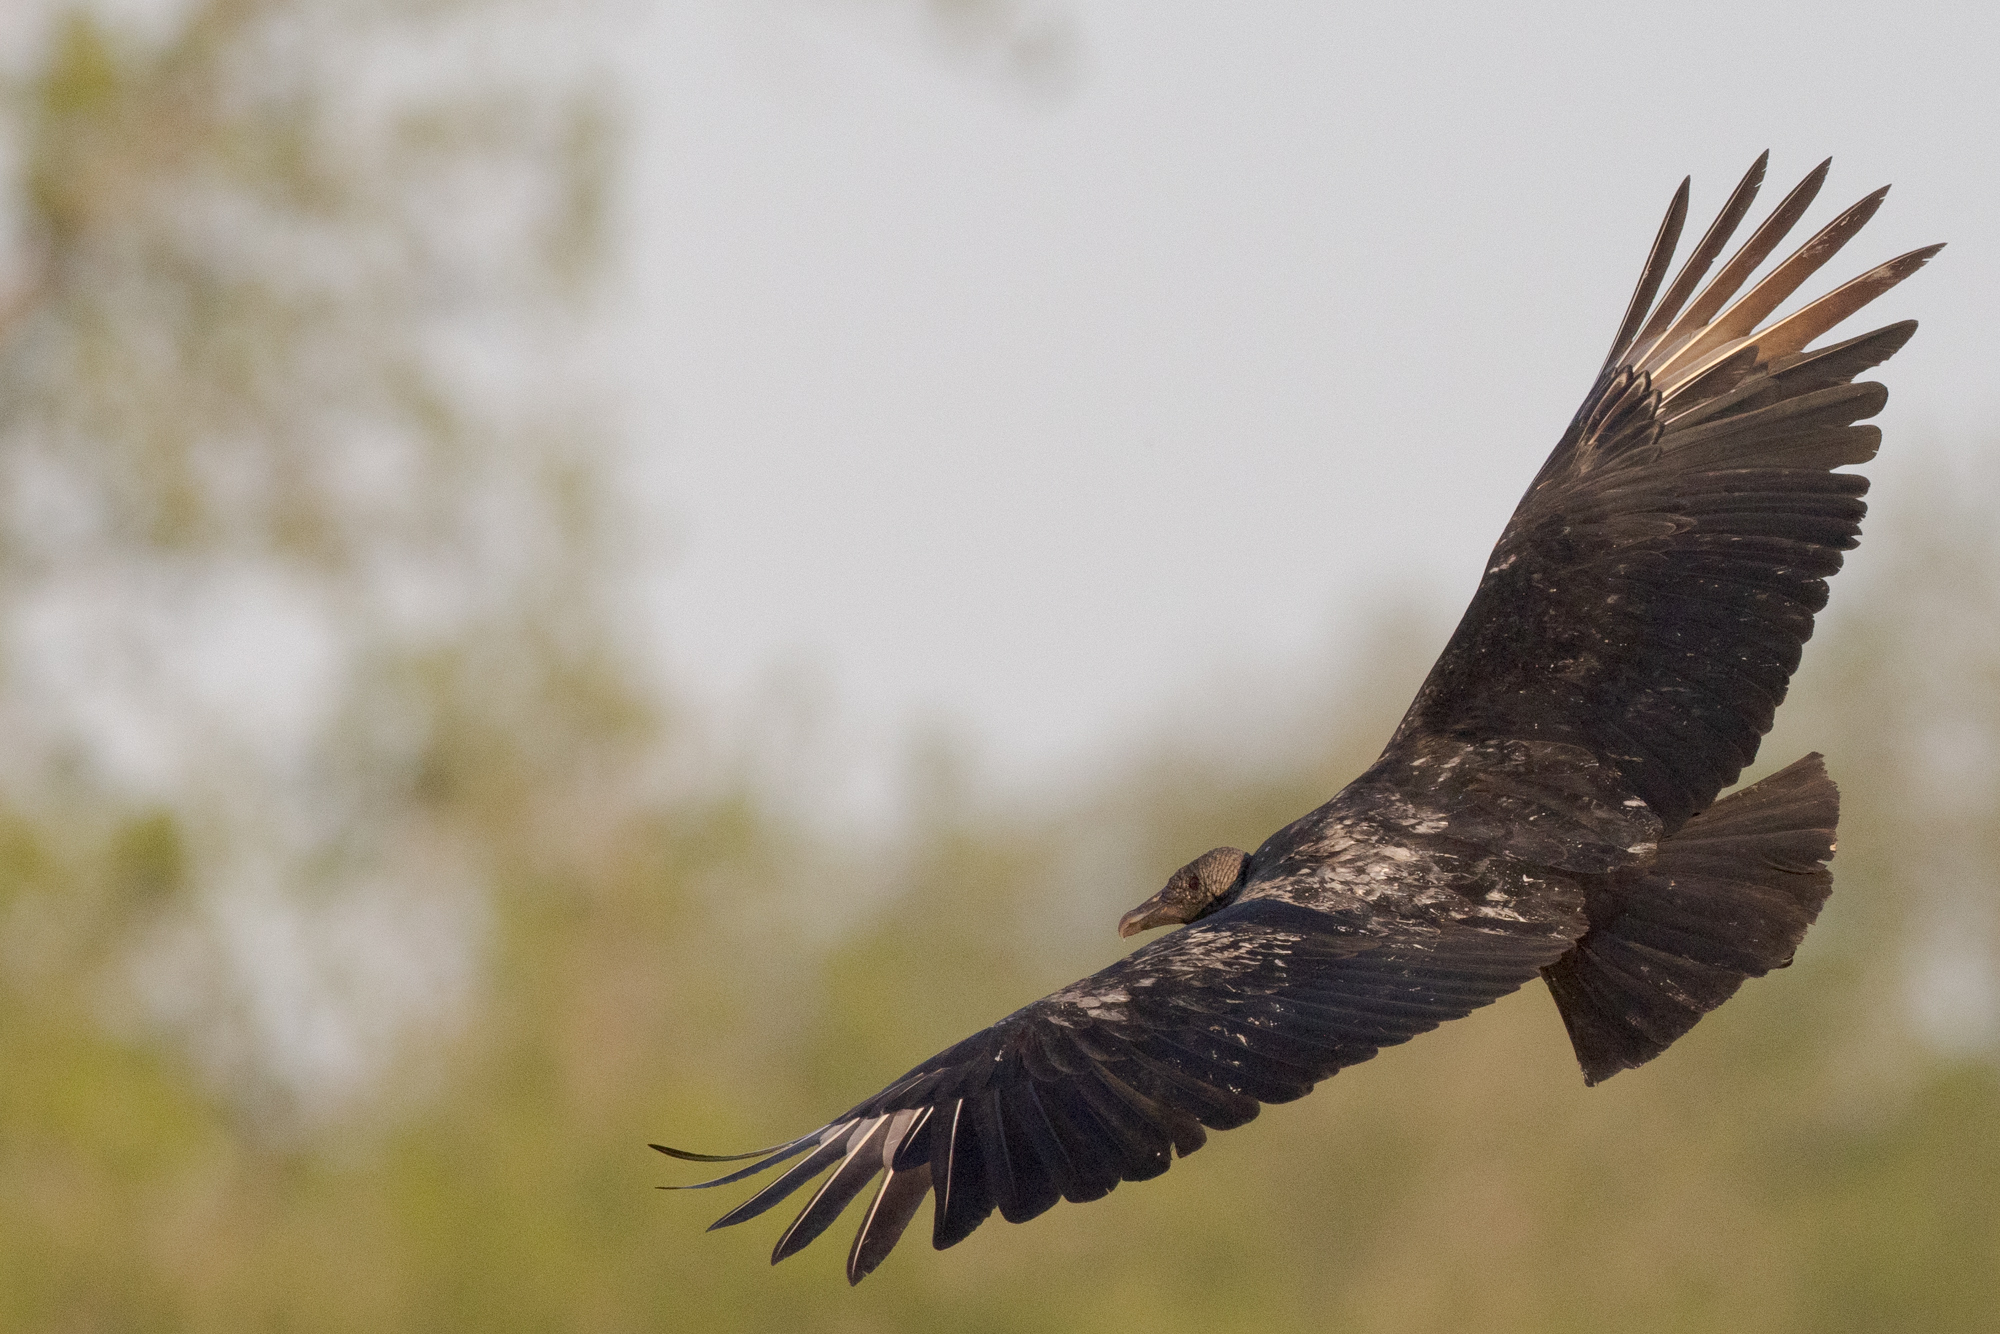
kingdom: Animalia
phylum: Chordata
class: Aves
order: Accipitriformes
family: Cathartidae
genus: Coragyps
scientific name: Coragyps atratus
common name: Black vulture
